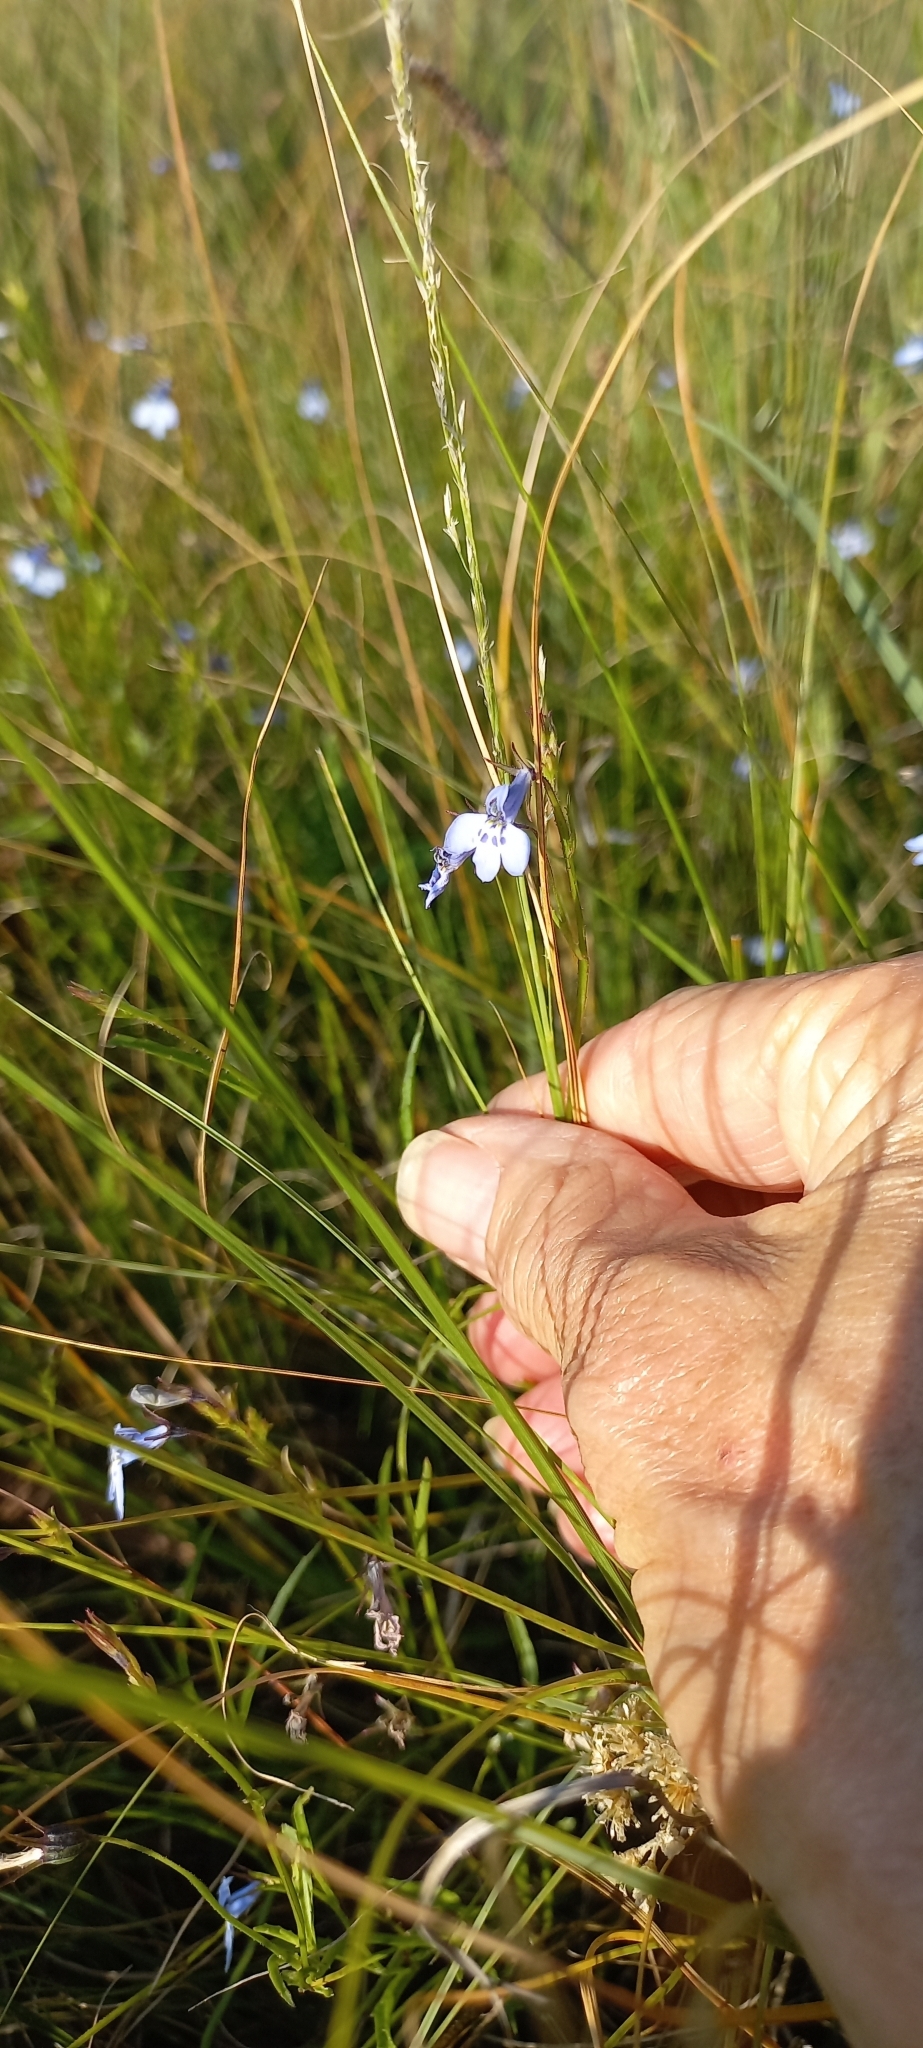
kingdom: Plantae
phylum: Tracheophyta
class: Magnoliopsida
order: Asterales
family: Campanulaceae
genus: Lobelia
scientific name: Lobelia flaccida
